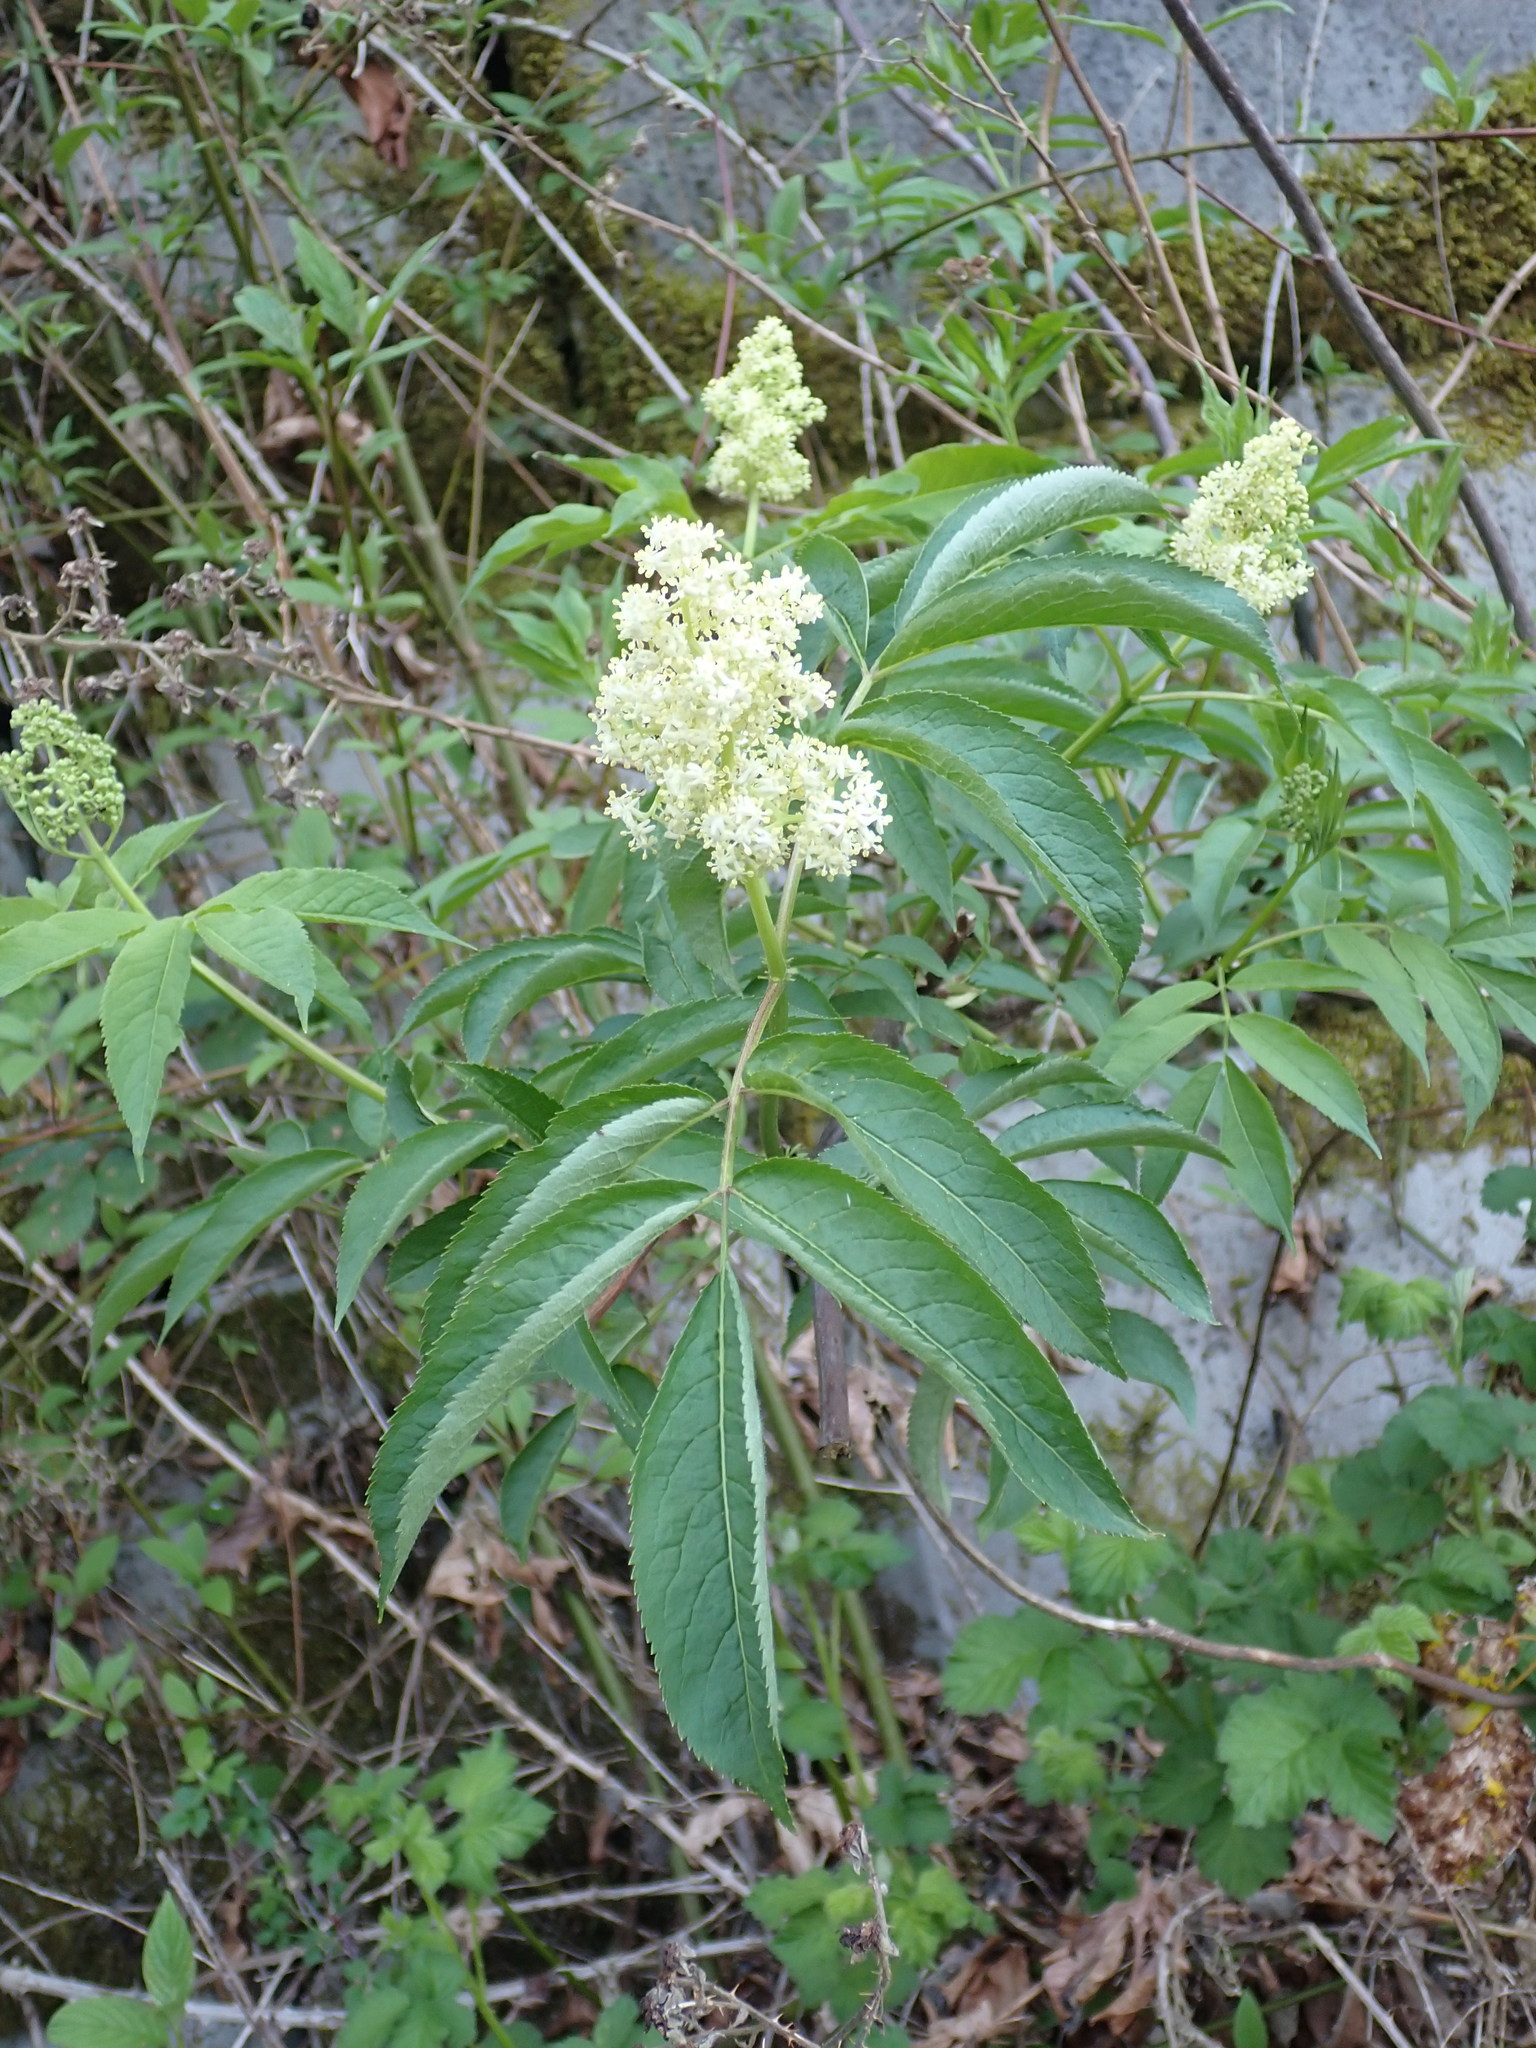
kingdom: Plantae
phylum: Tracheophyta
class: Magnoliopsida
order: Dipsacales
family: Viburnaceae
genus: Sambucus
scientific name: Sambucus racemosa
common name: Red-berried elder
